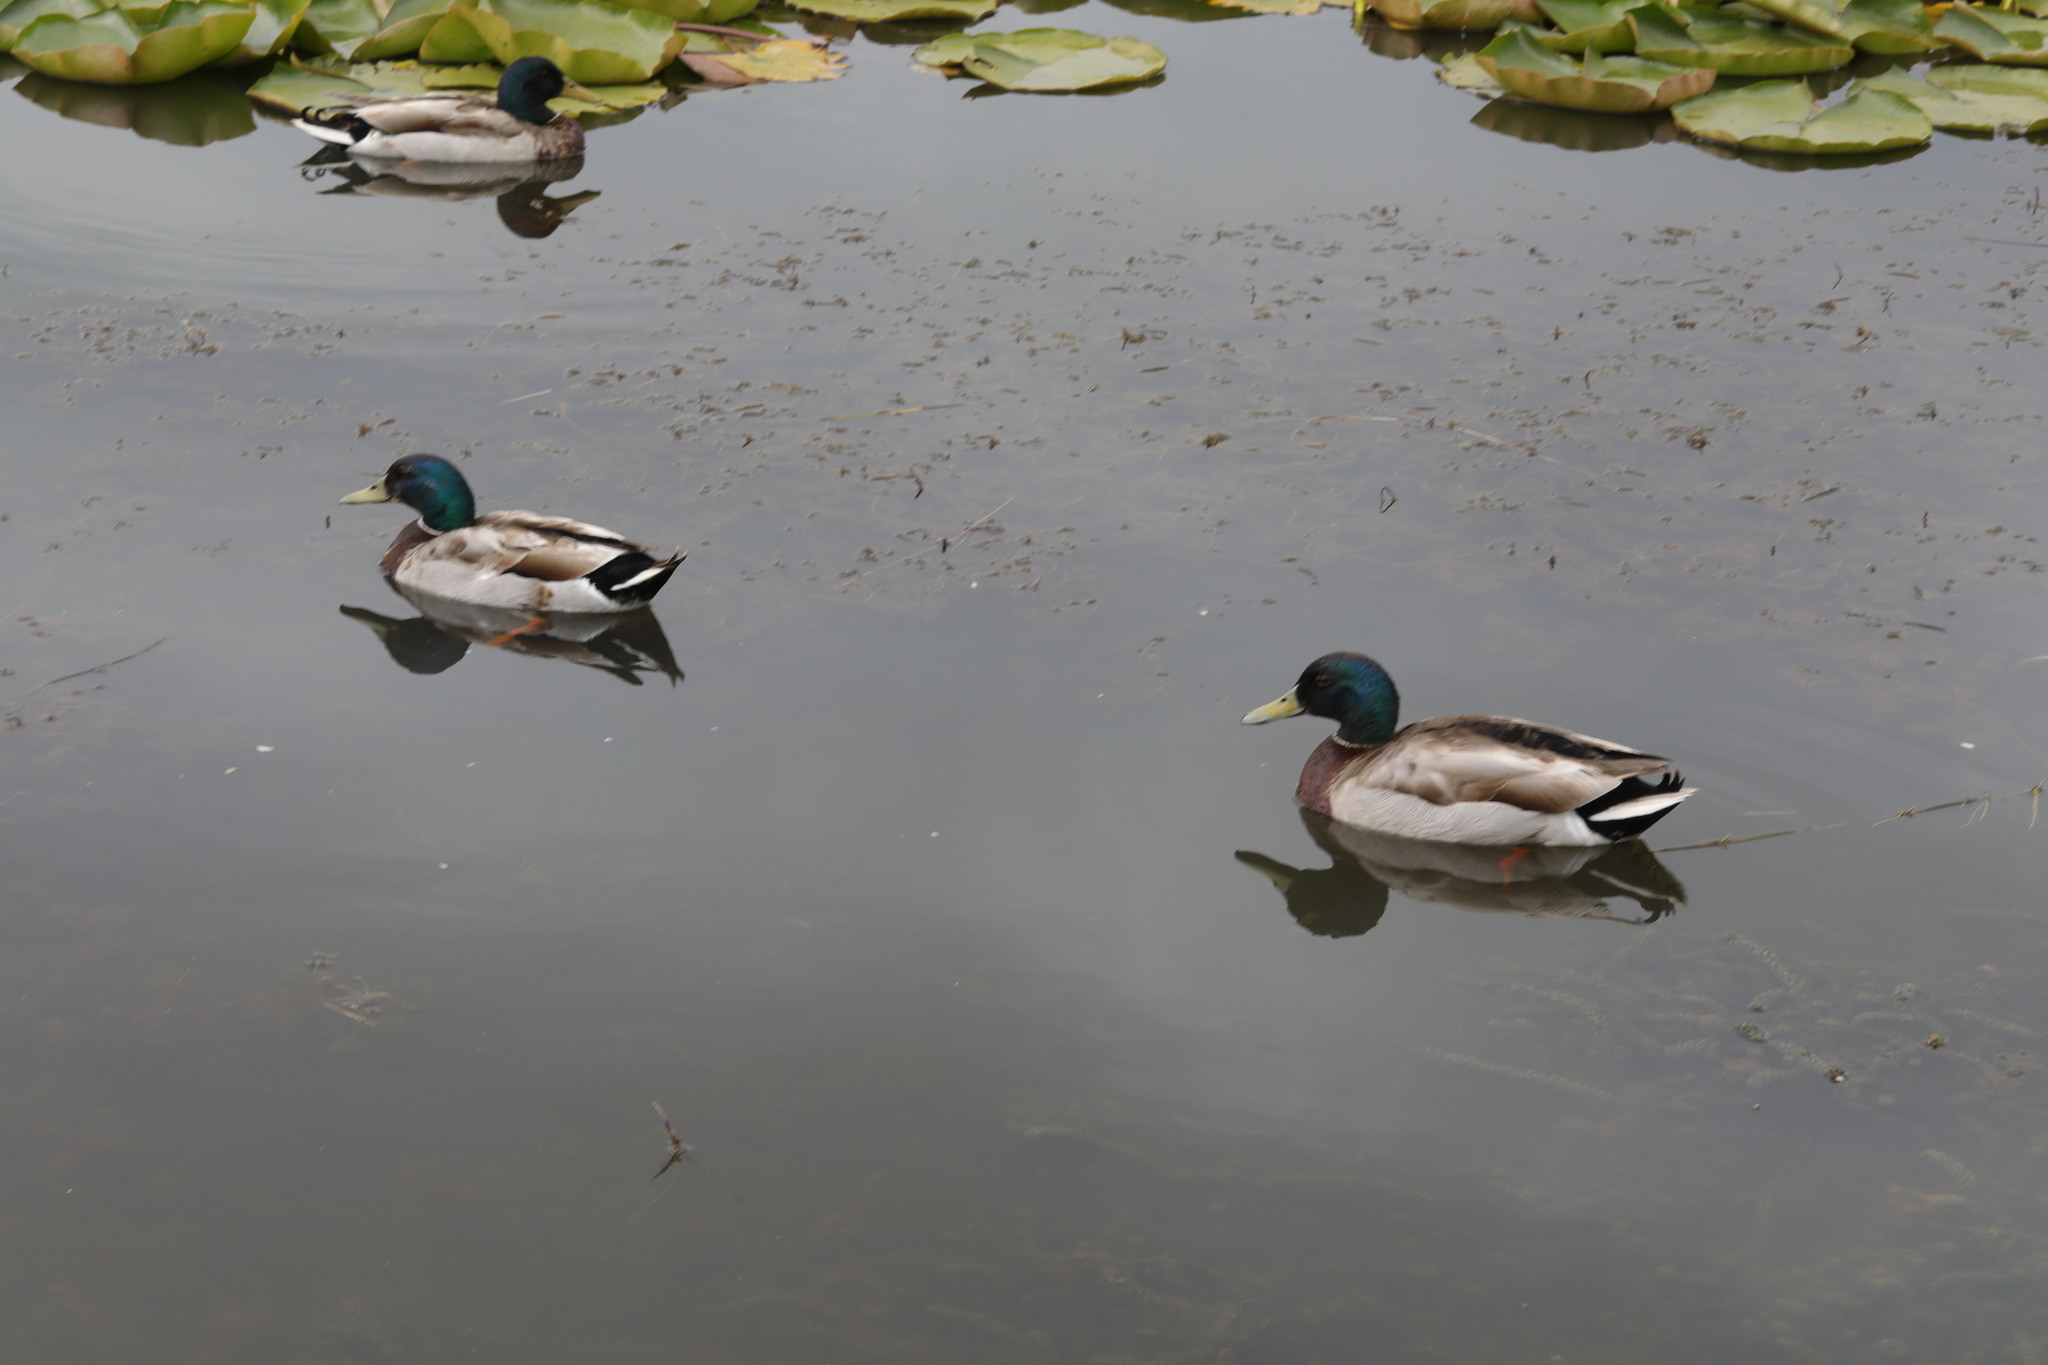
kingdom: Animalia
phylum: Chordata
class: Aves
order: Anseriformes
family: Anatidae
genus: Anas
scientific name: Anas platyrhynchos
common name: Mallard
